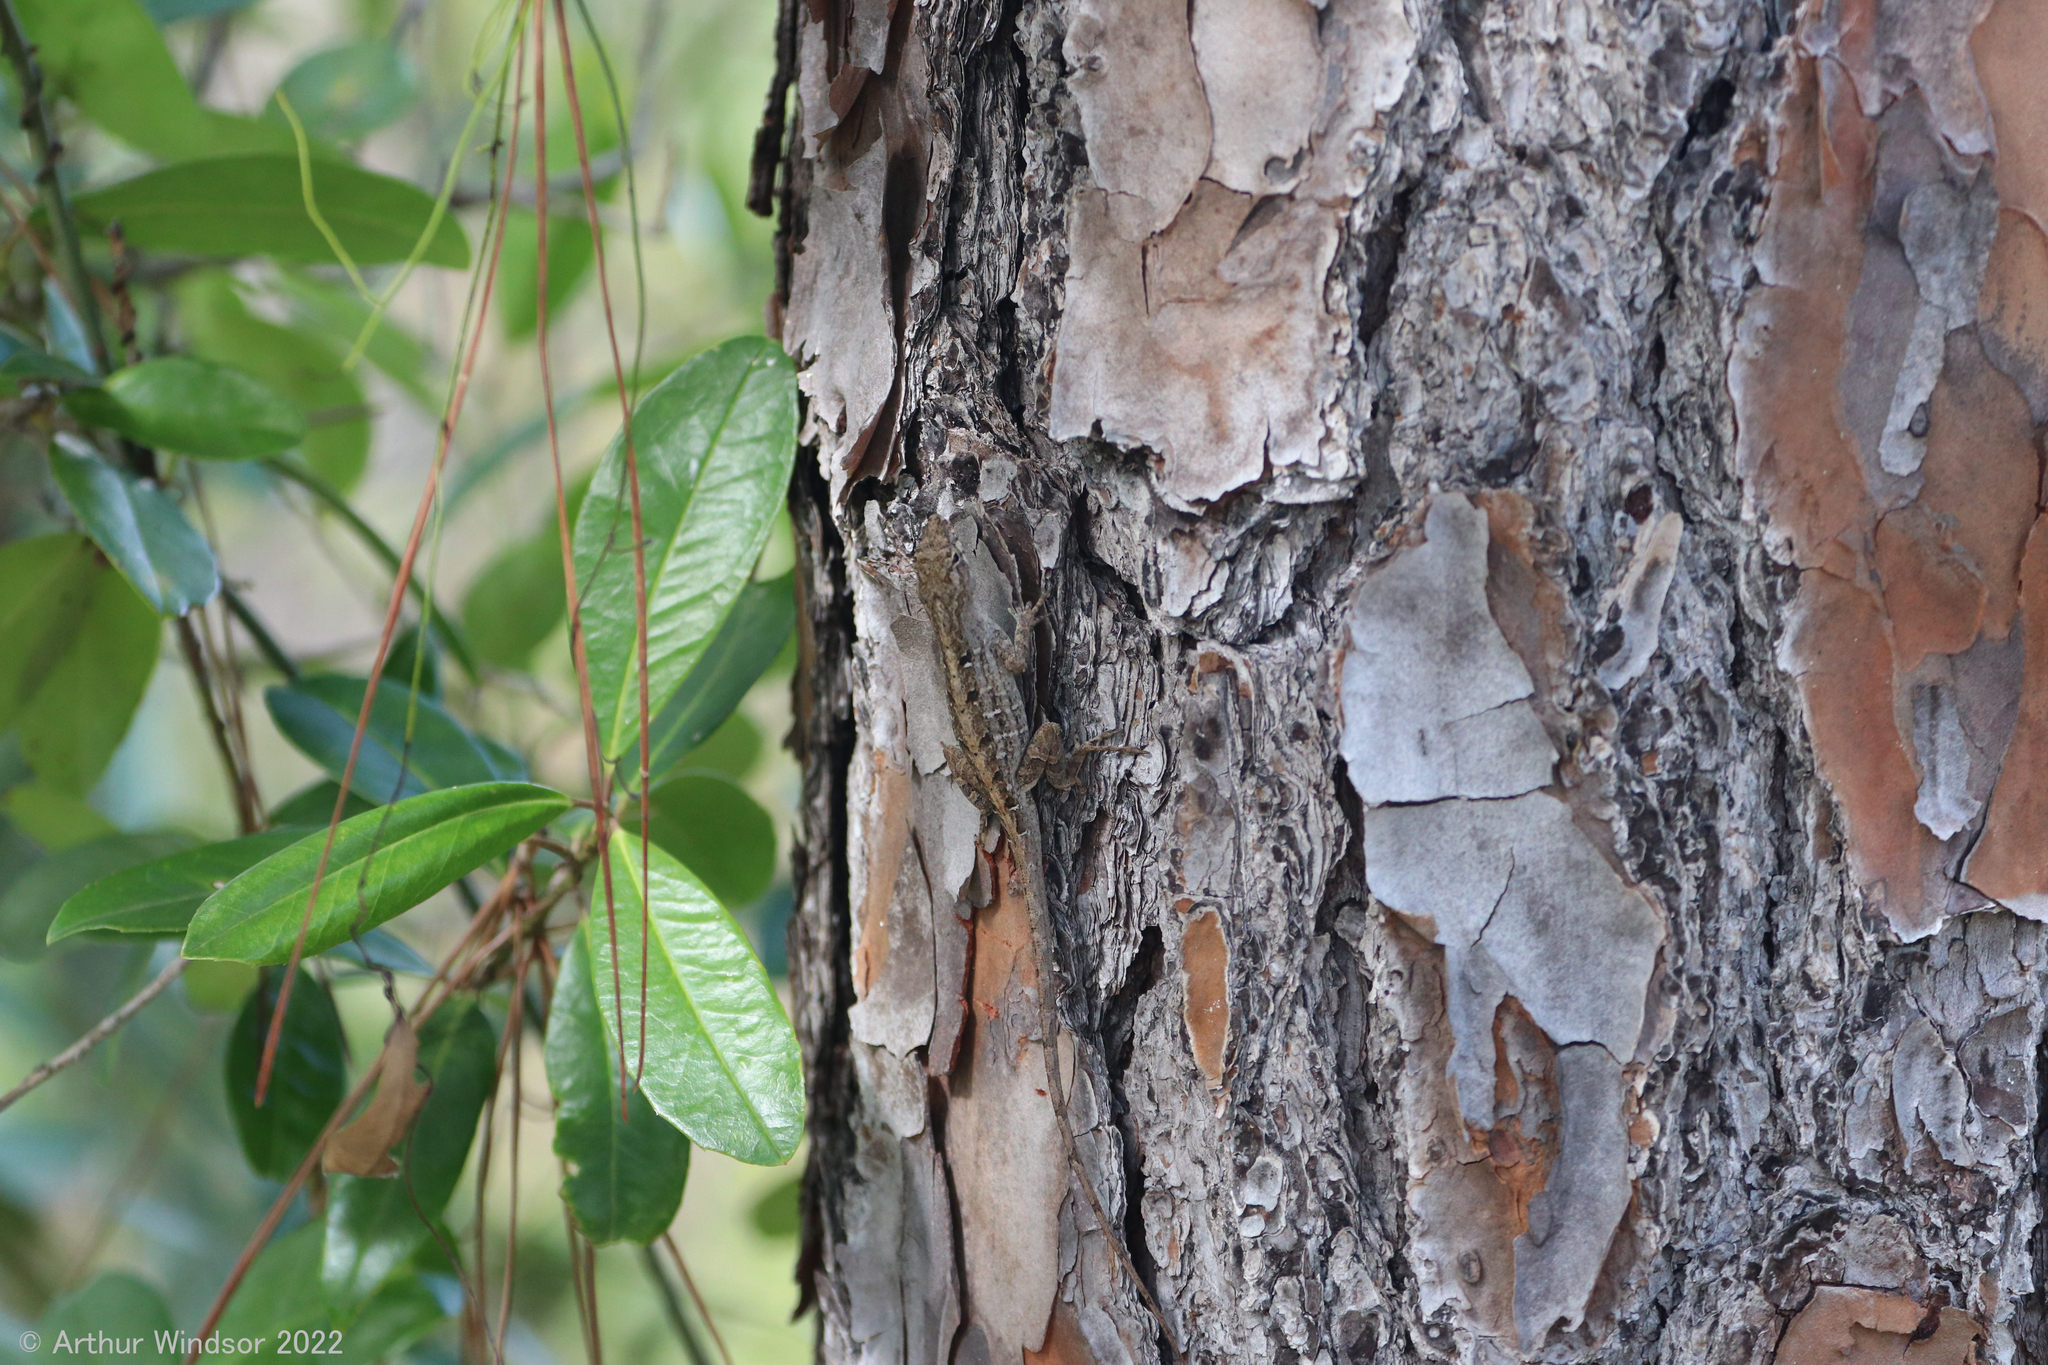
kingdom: Animalia
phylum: Chordata
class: Squamata
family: Dactyloidae
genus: Anolis
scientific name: Anolis sagrei
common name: Brown anole
